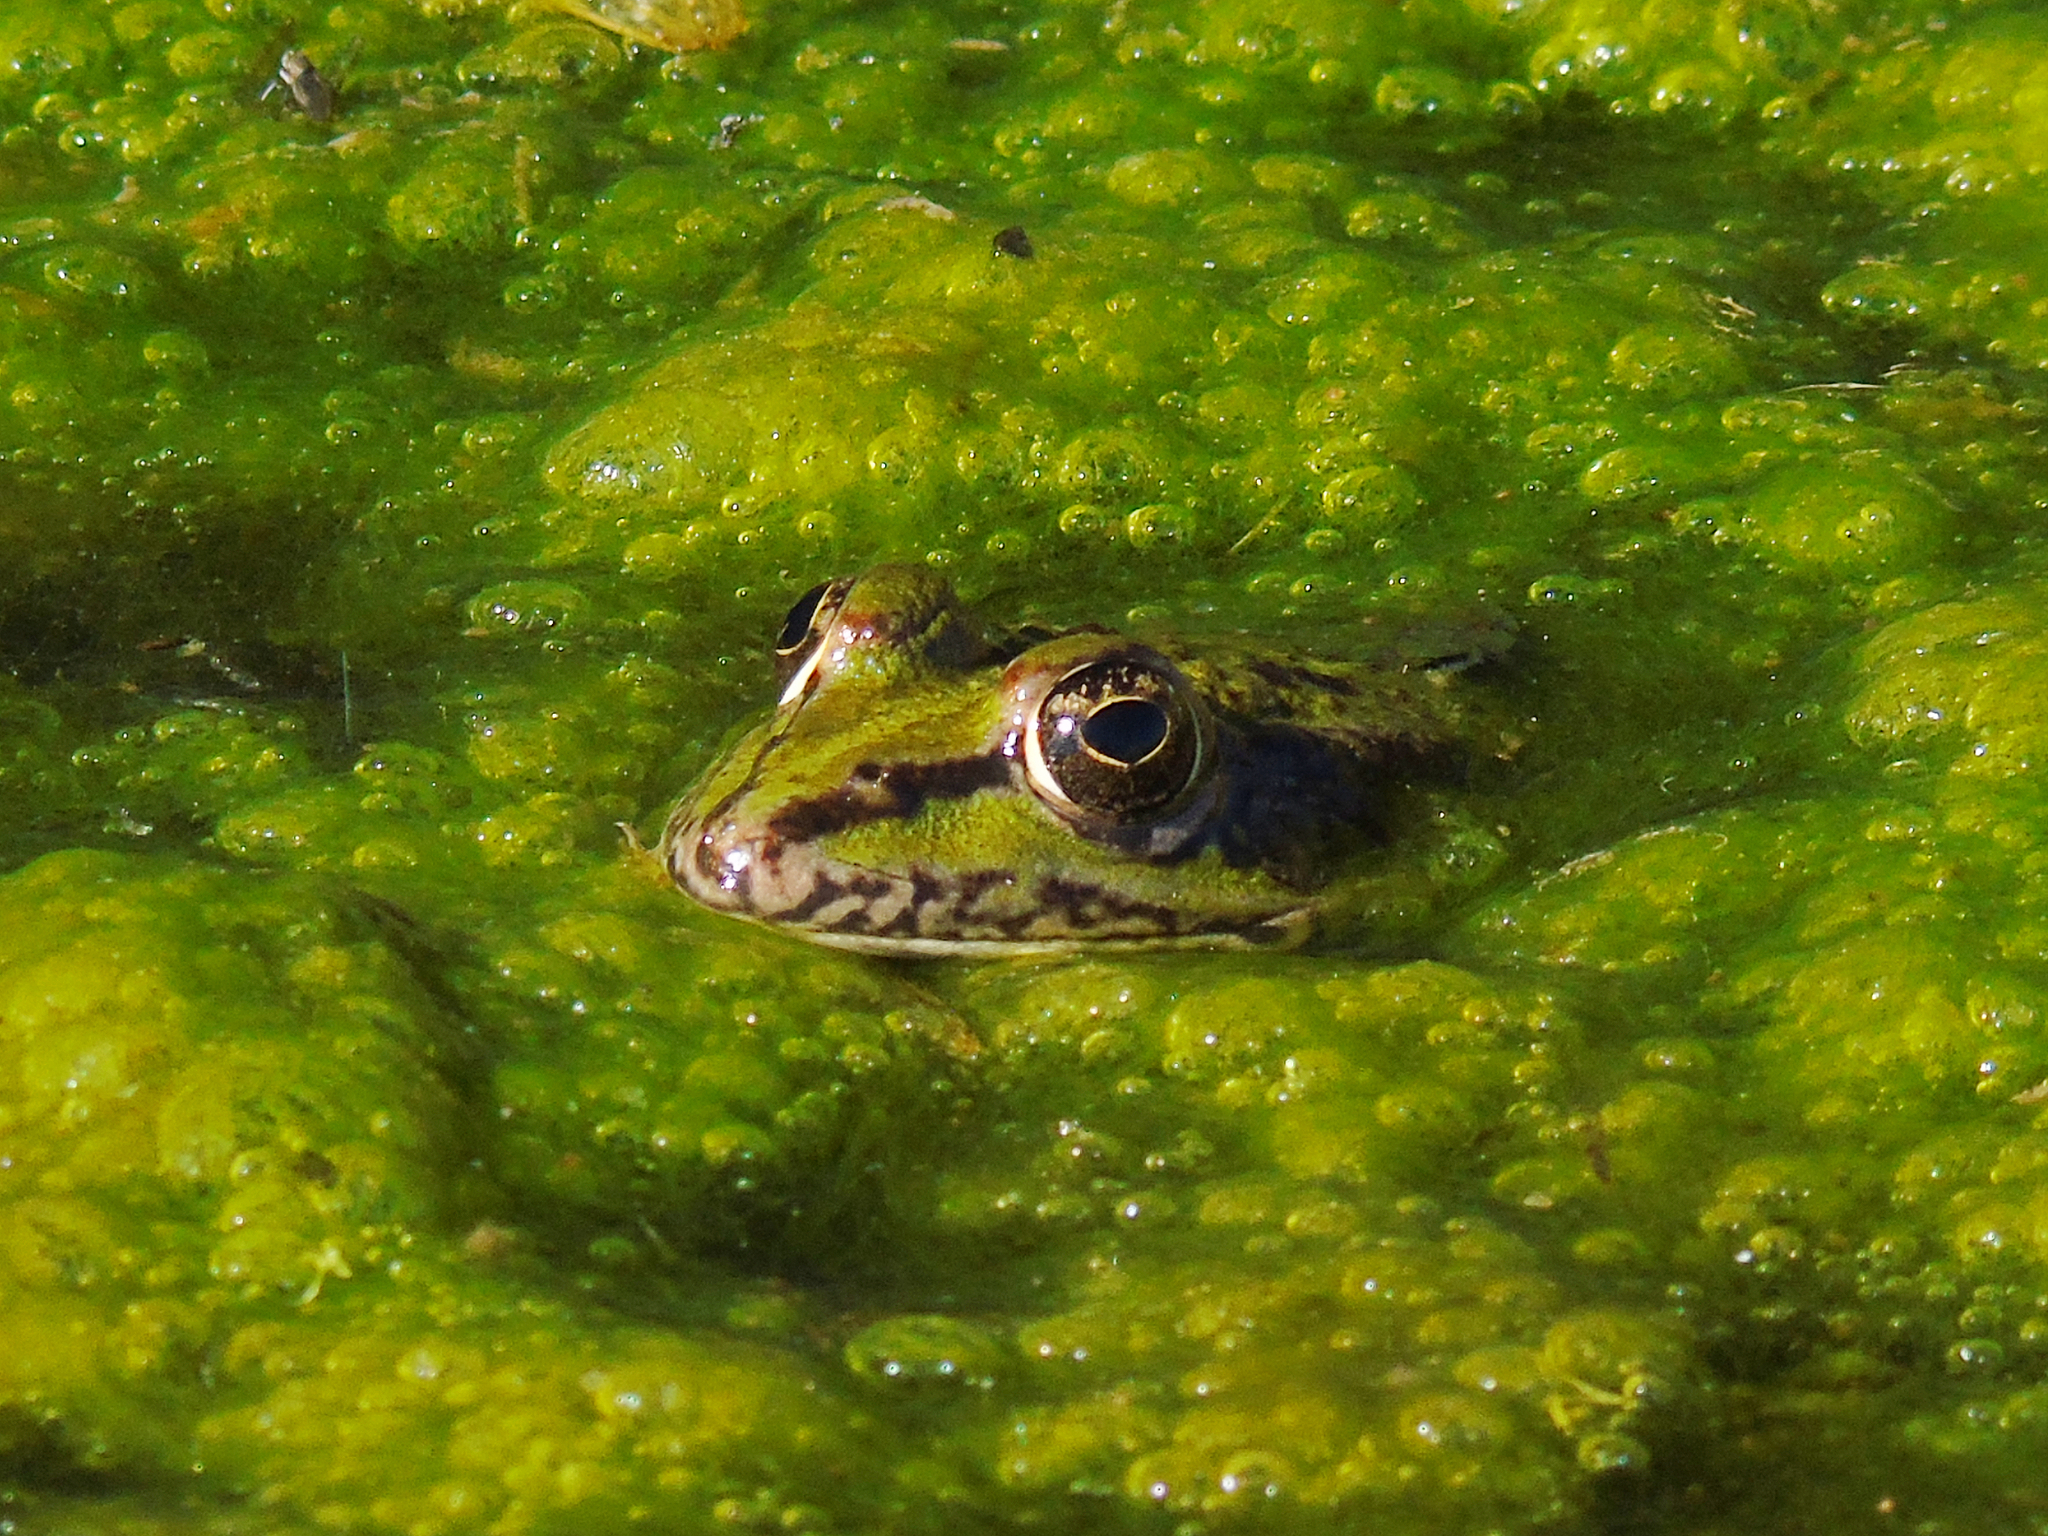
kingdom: Animalia
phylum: Chordata
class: Amphibia
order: Anura
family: Ranidae
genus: Pelophylax
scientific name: Pelophylax ridibundus
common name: Marsh frog
